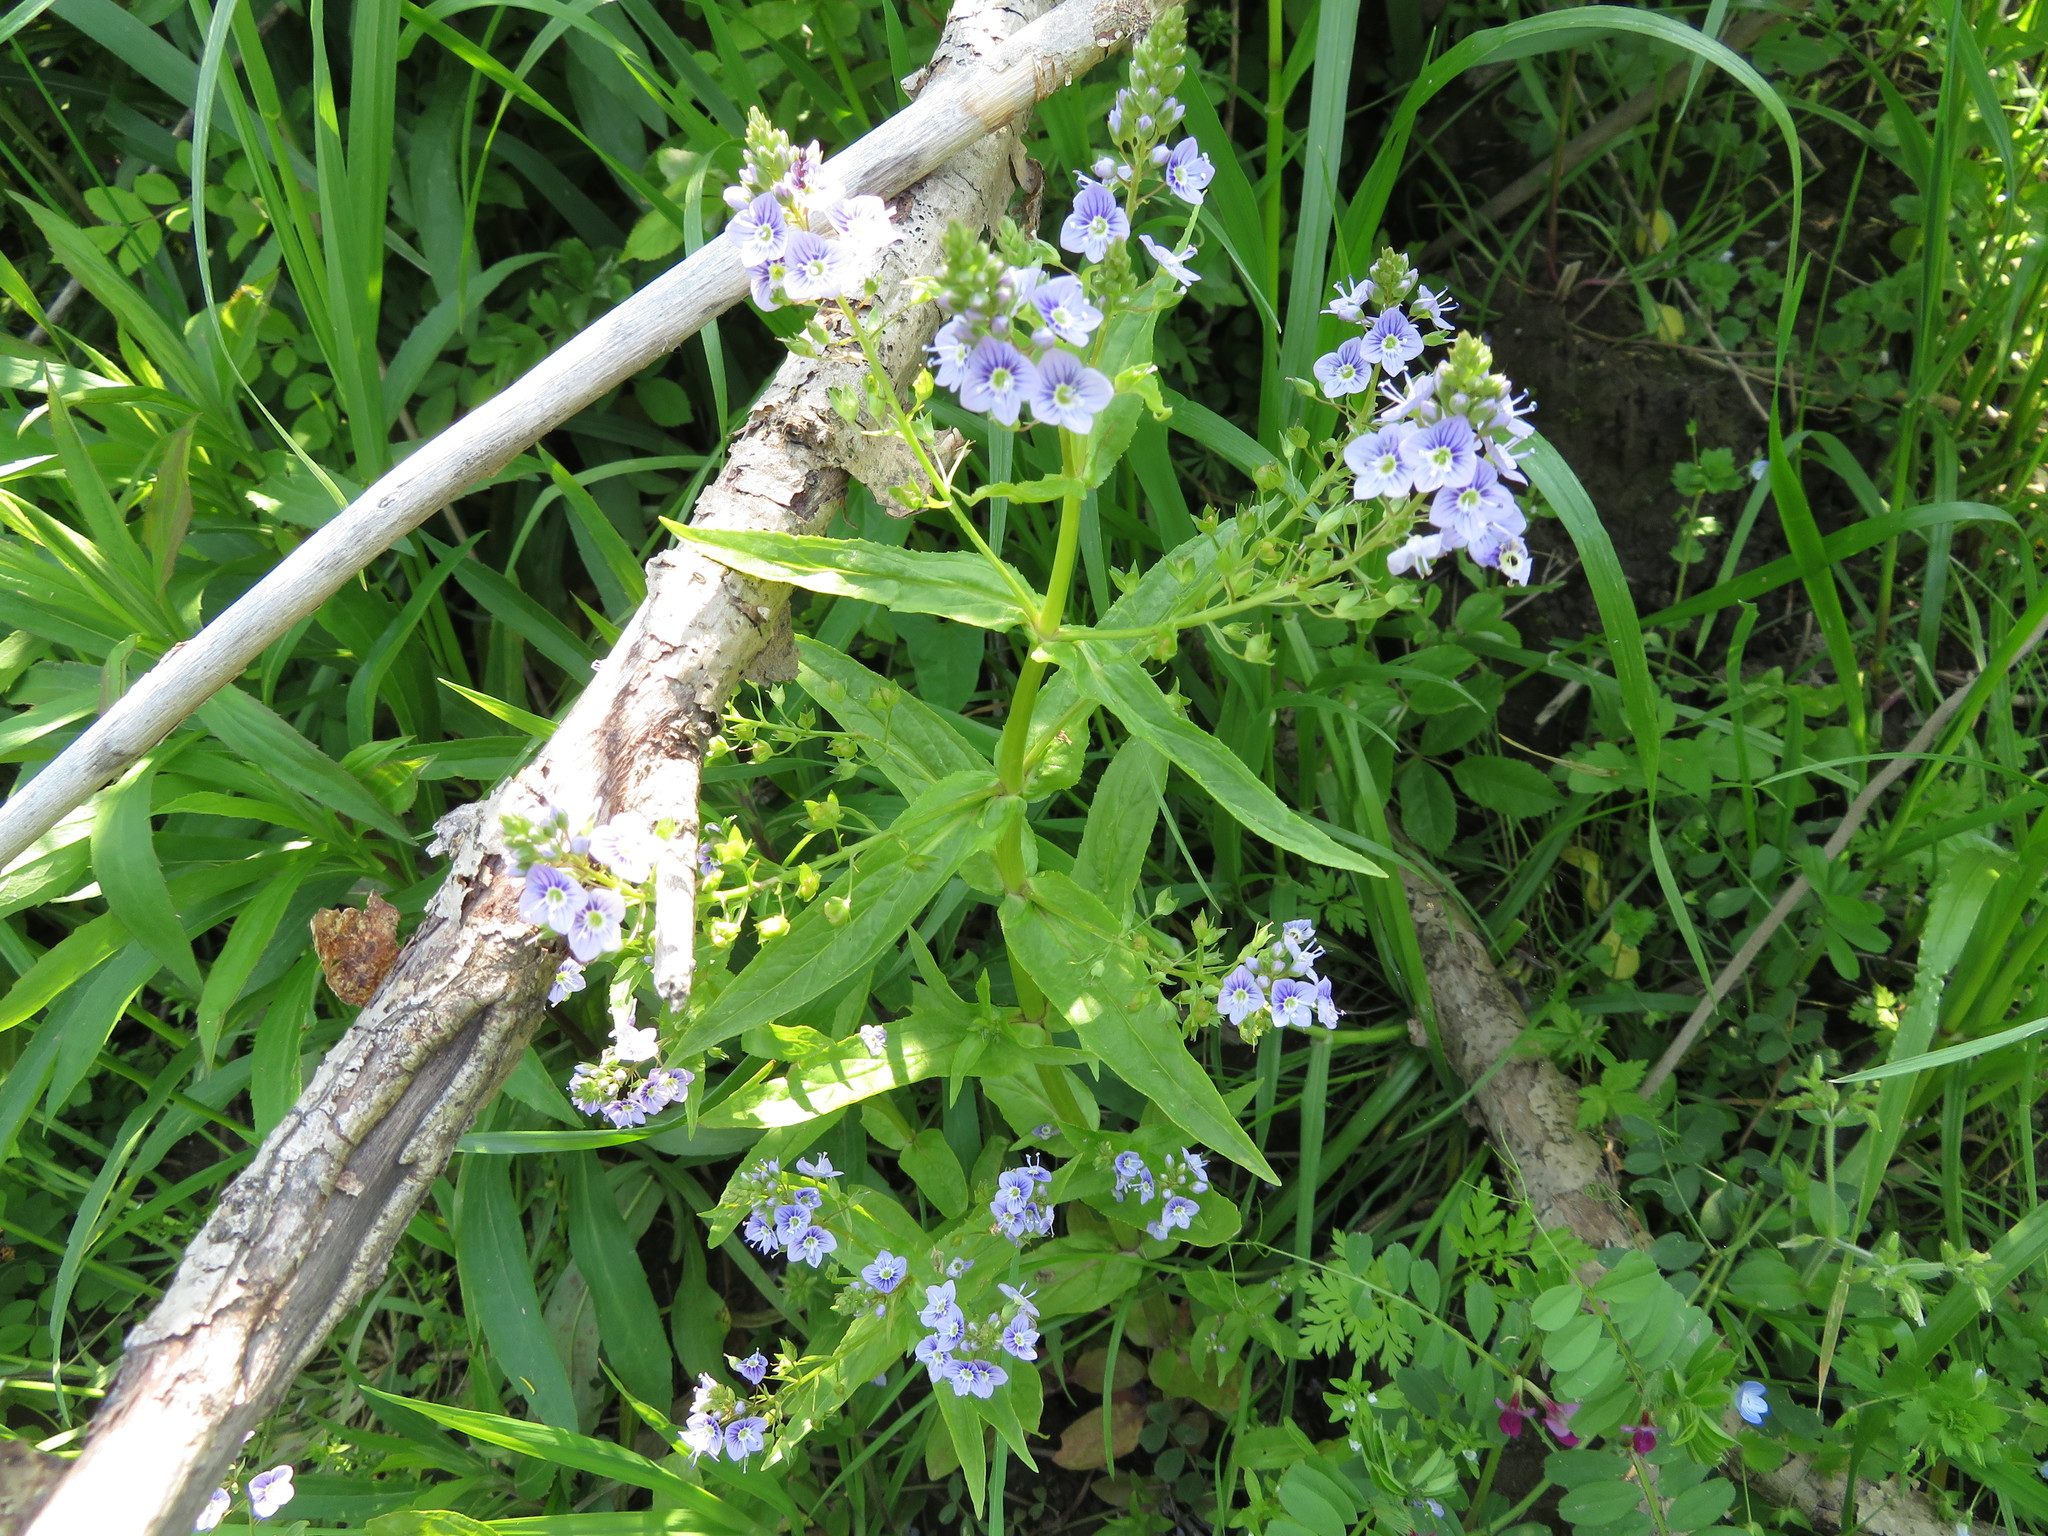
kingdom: Plantae
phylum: Tracheophyta
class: Magnoliopsida
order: Lamiales
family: Plantaginaceae
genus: Veronica
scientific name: Veronica anagallis-aquatica
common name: Water speedwell
